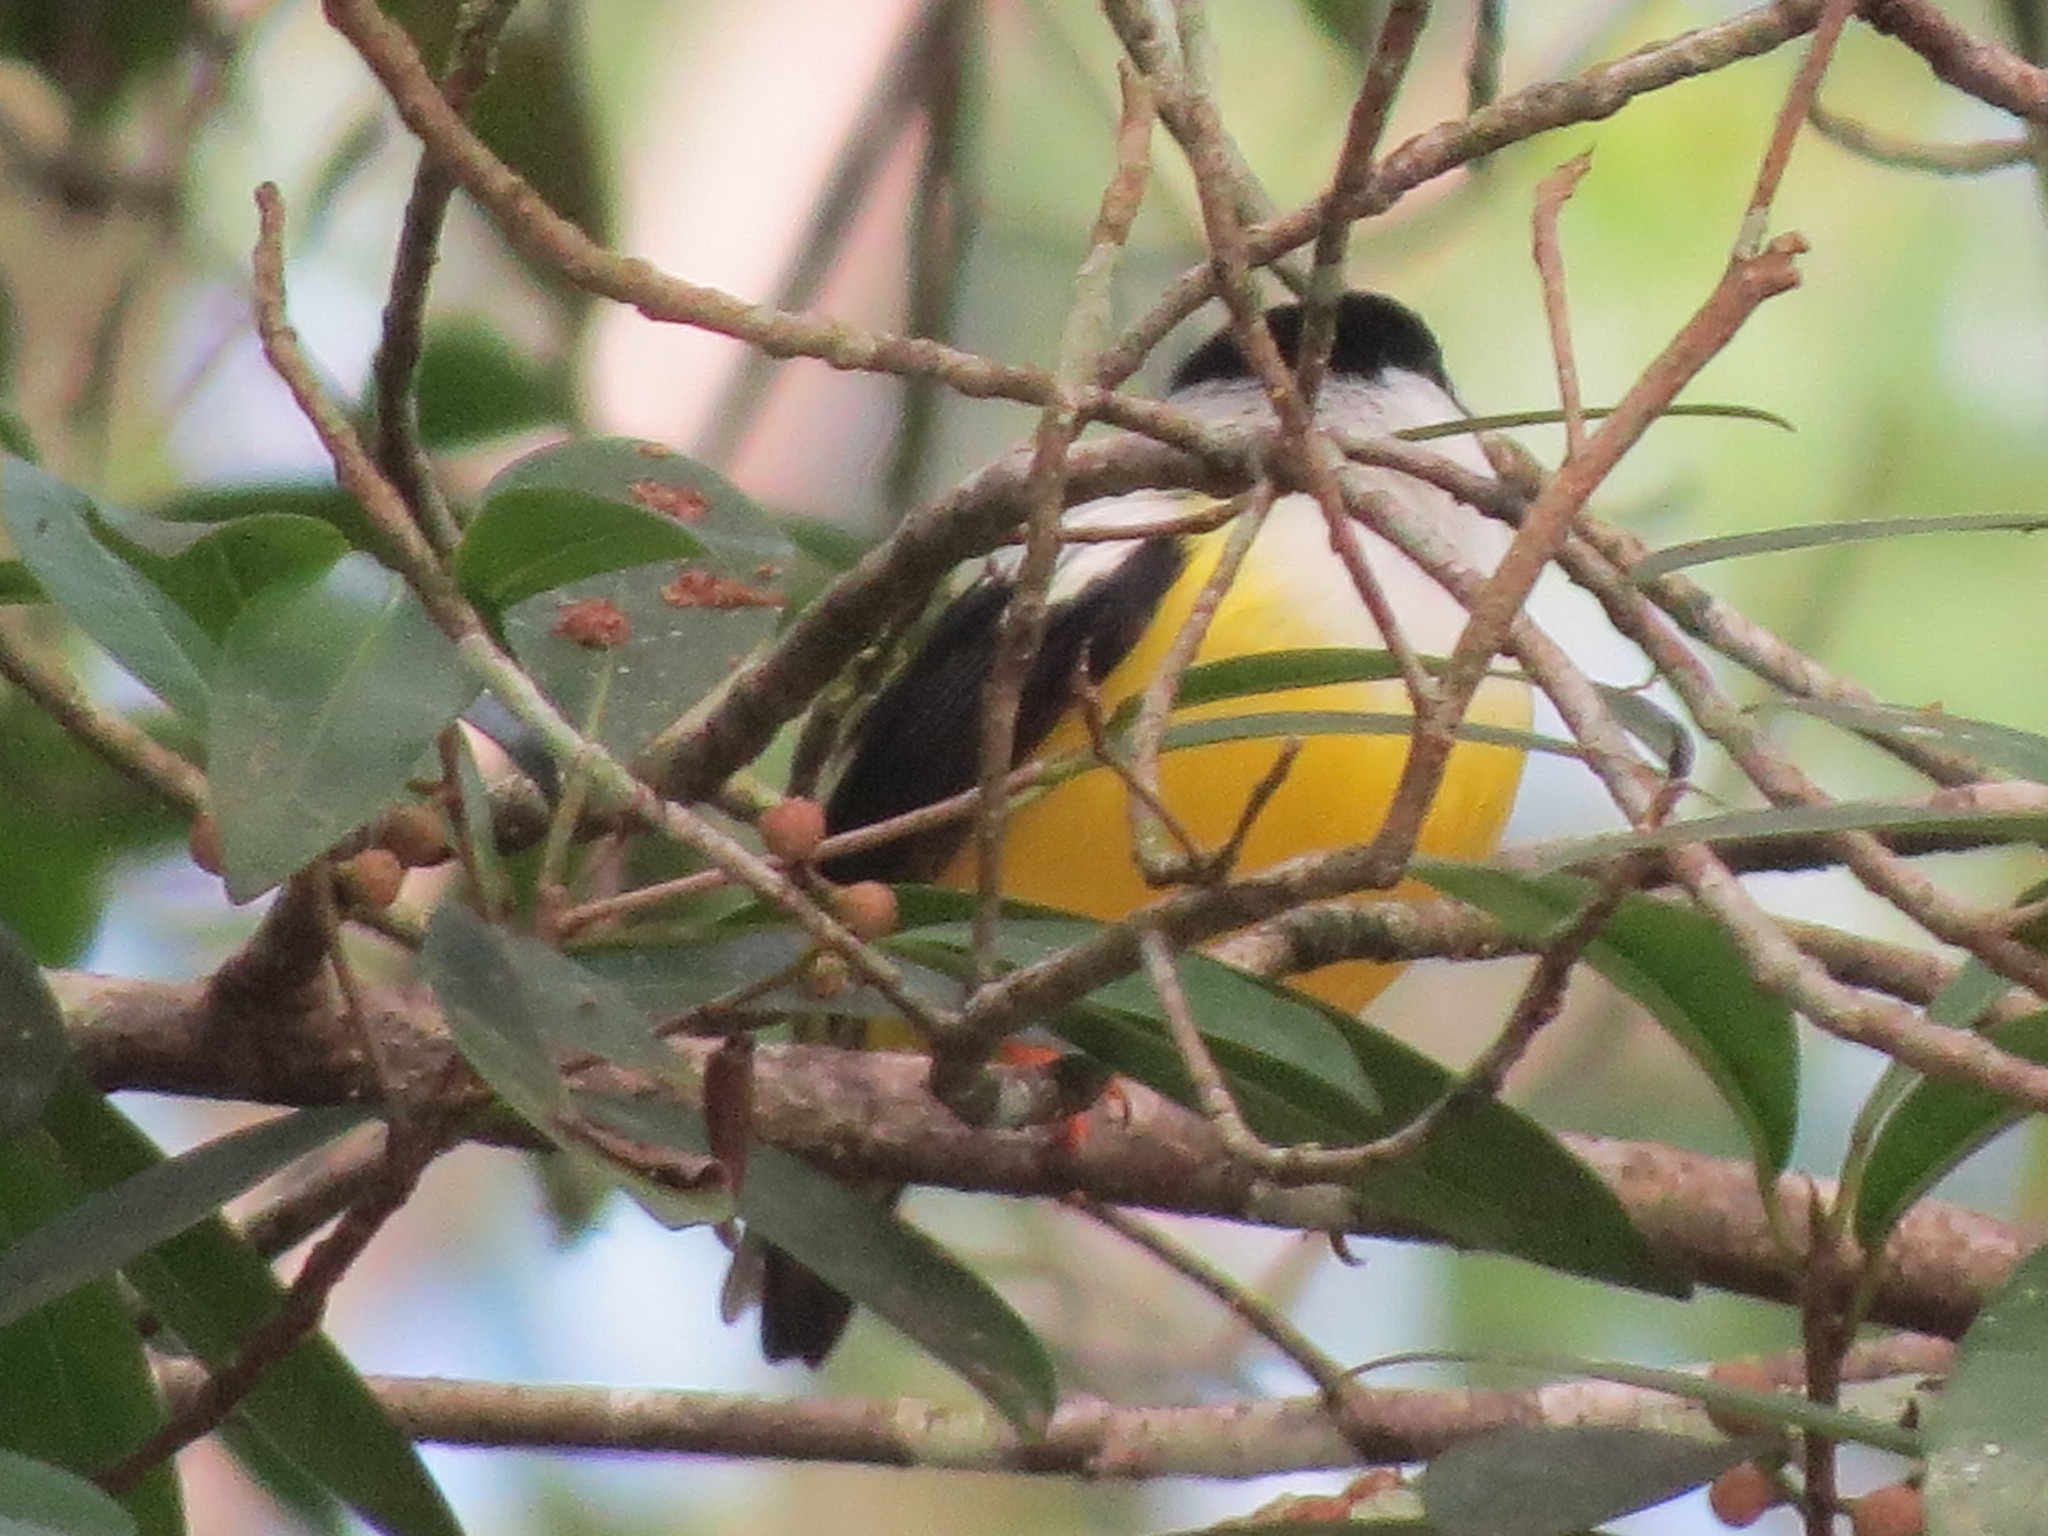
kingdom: Animalia
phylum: Chordata
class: Aves
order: Passeriformes
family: Pipridae
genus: Manacus
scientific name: Manacus candei
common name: White-collared manakin
